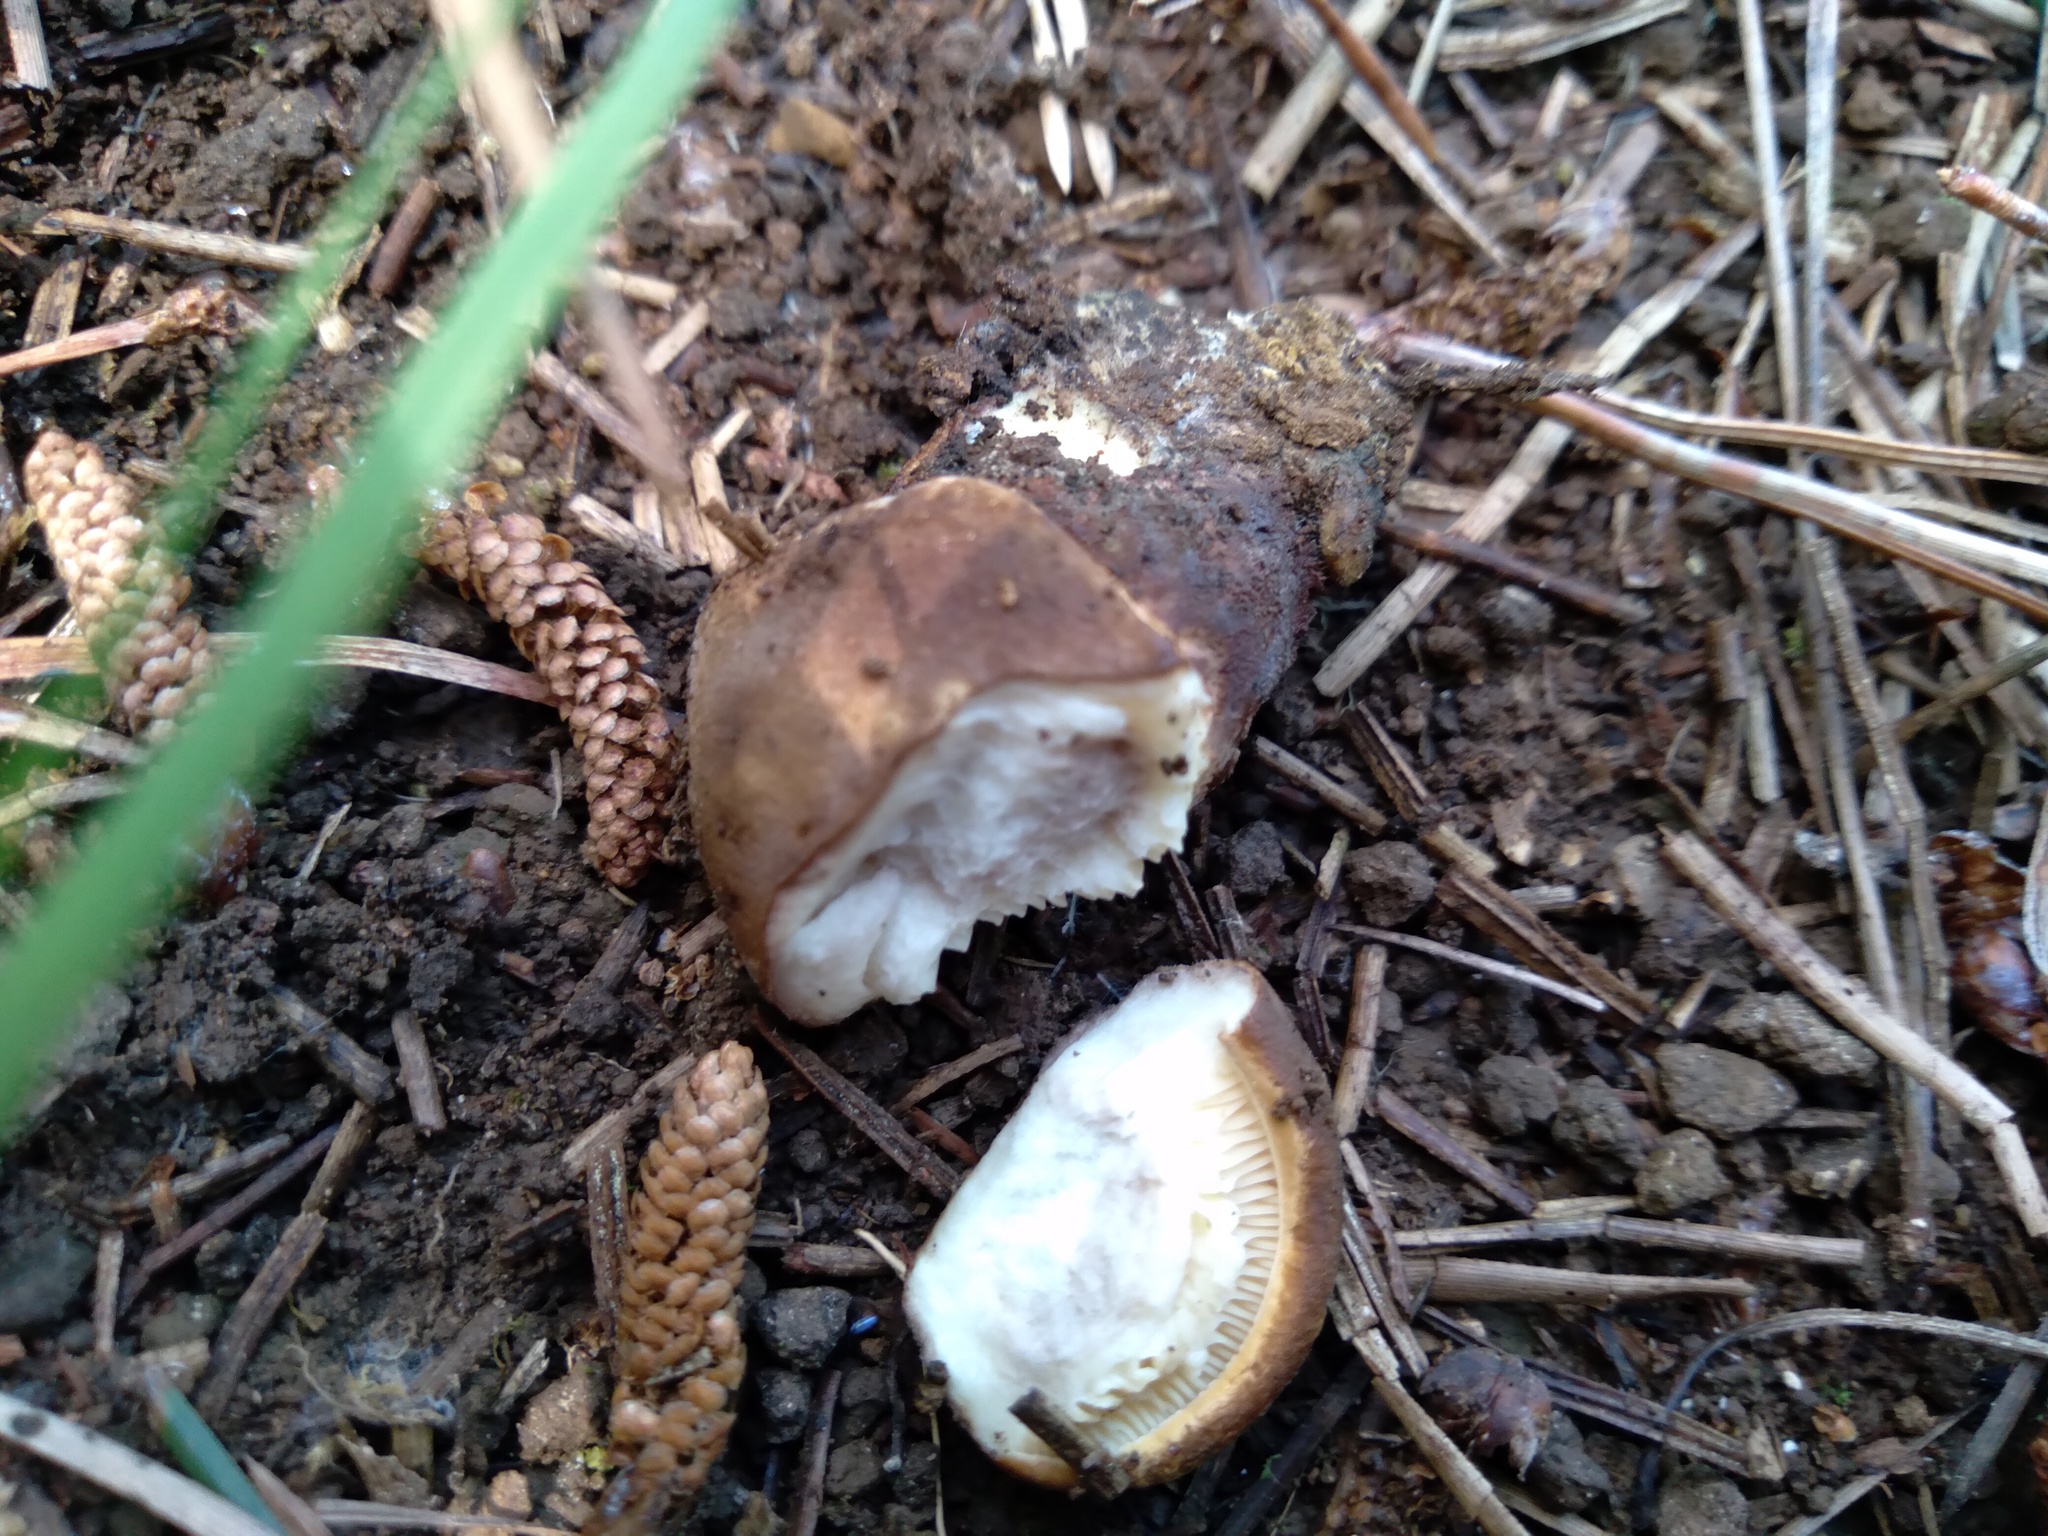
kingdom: Fungi
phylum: Basidiomycota
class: Agaricomycetes
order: Boletales
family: Tapinellaceae
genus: Tapinella
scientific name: Tapinella atrotomentosa
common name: Velvet rollrim
